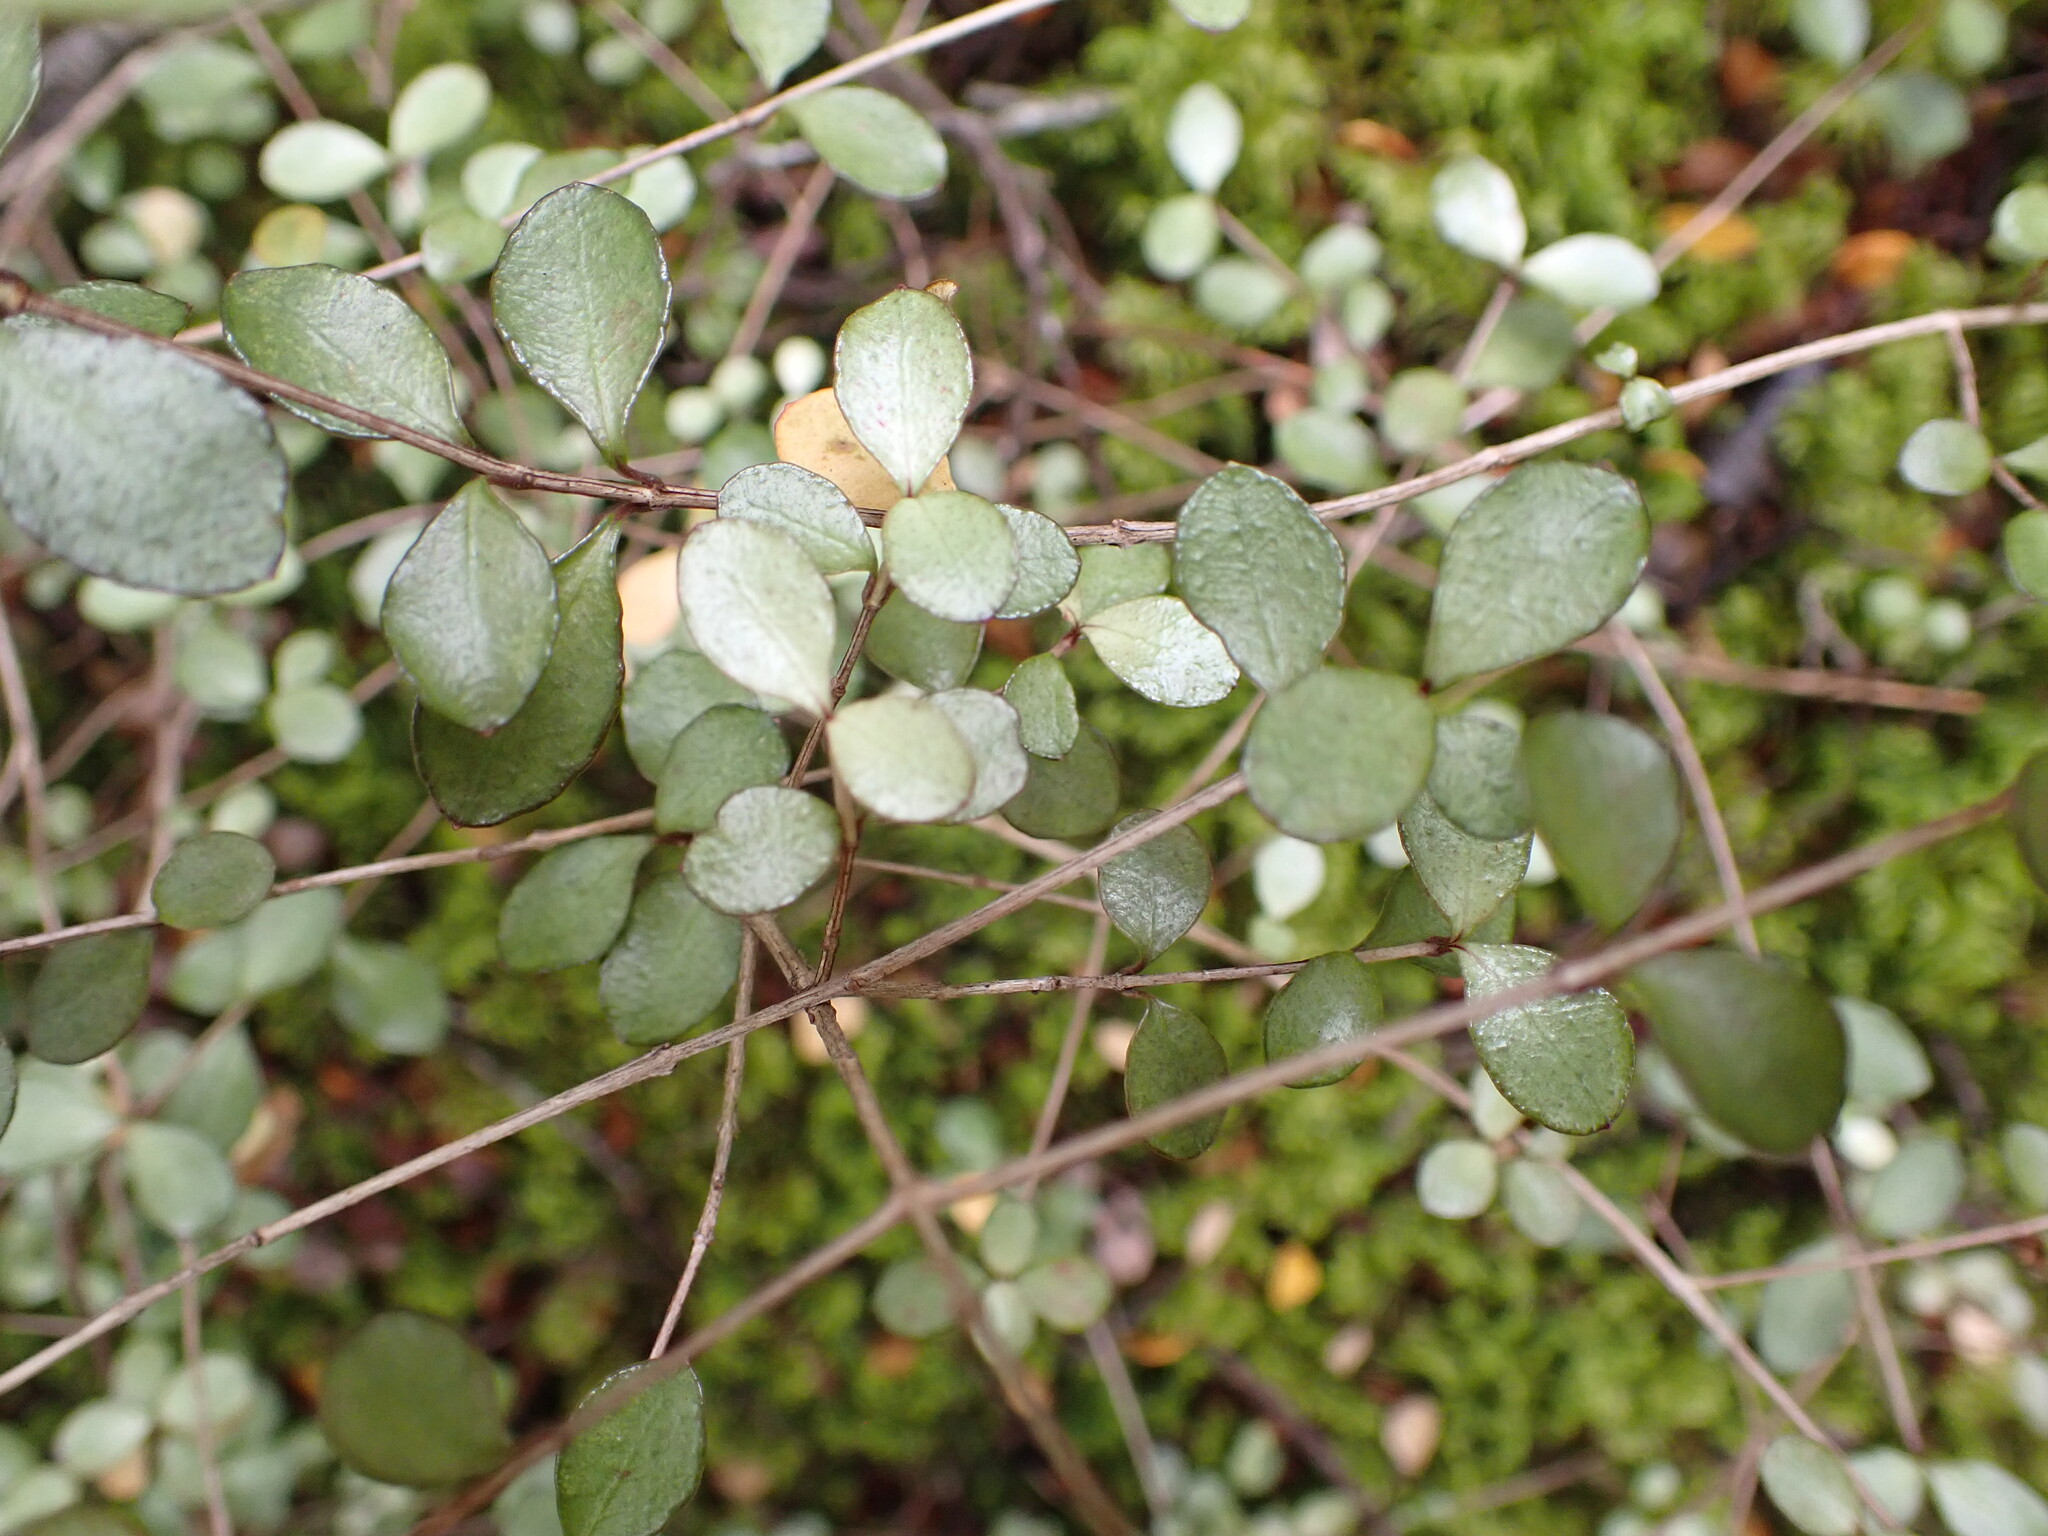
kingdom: Plantae
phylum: Tracheophyta
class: Magnoliopsida
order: Myrtales
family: Myrtaceae
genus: Neomyrtus
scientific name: Neomyrtus pedunculata
